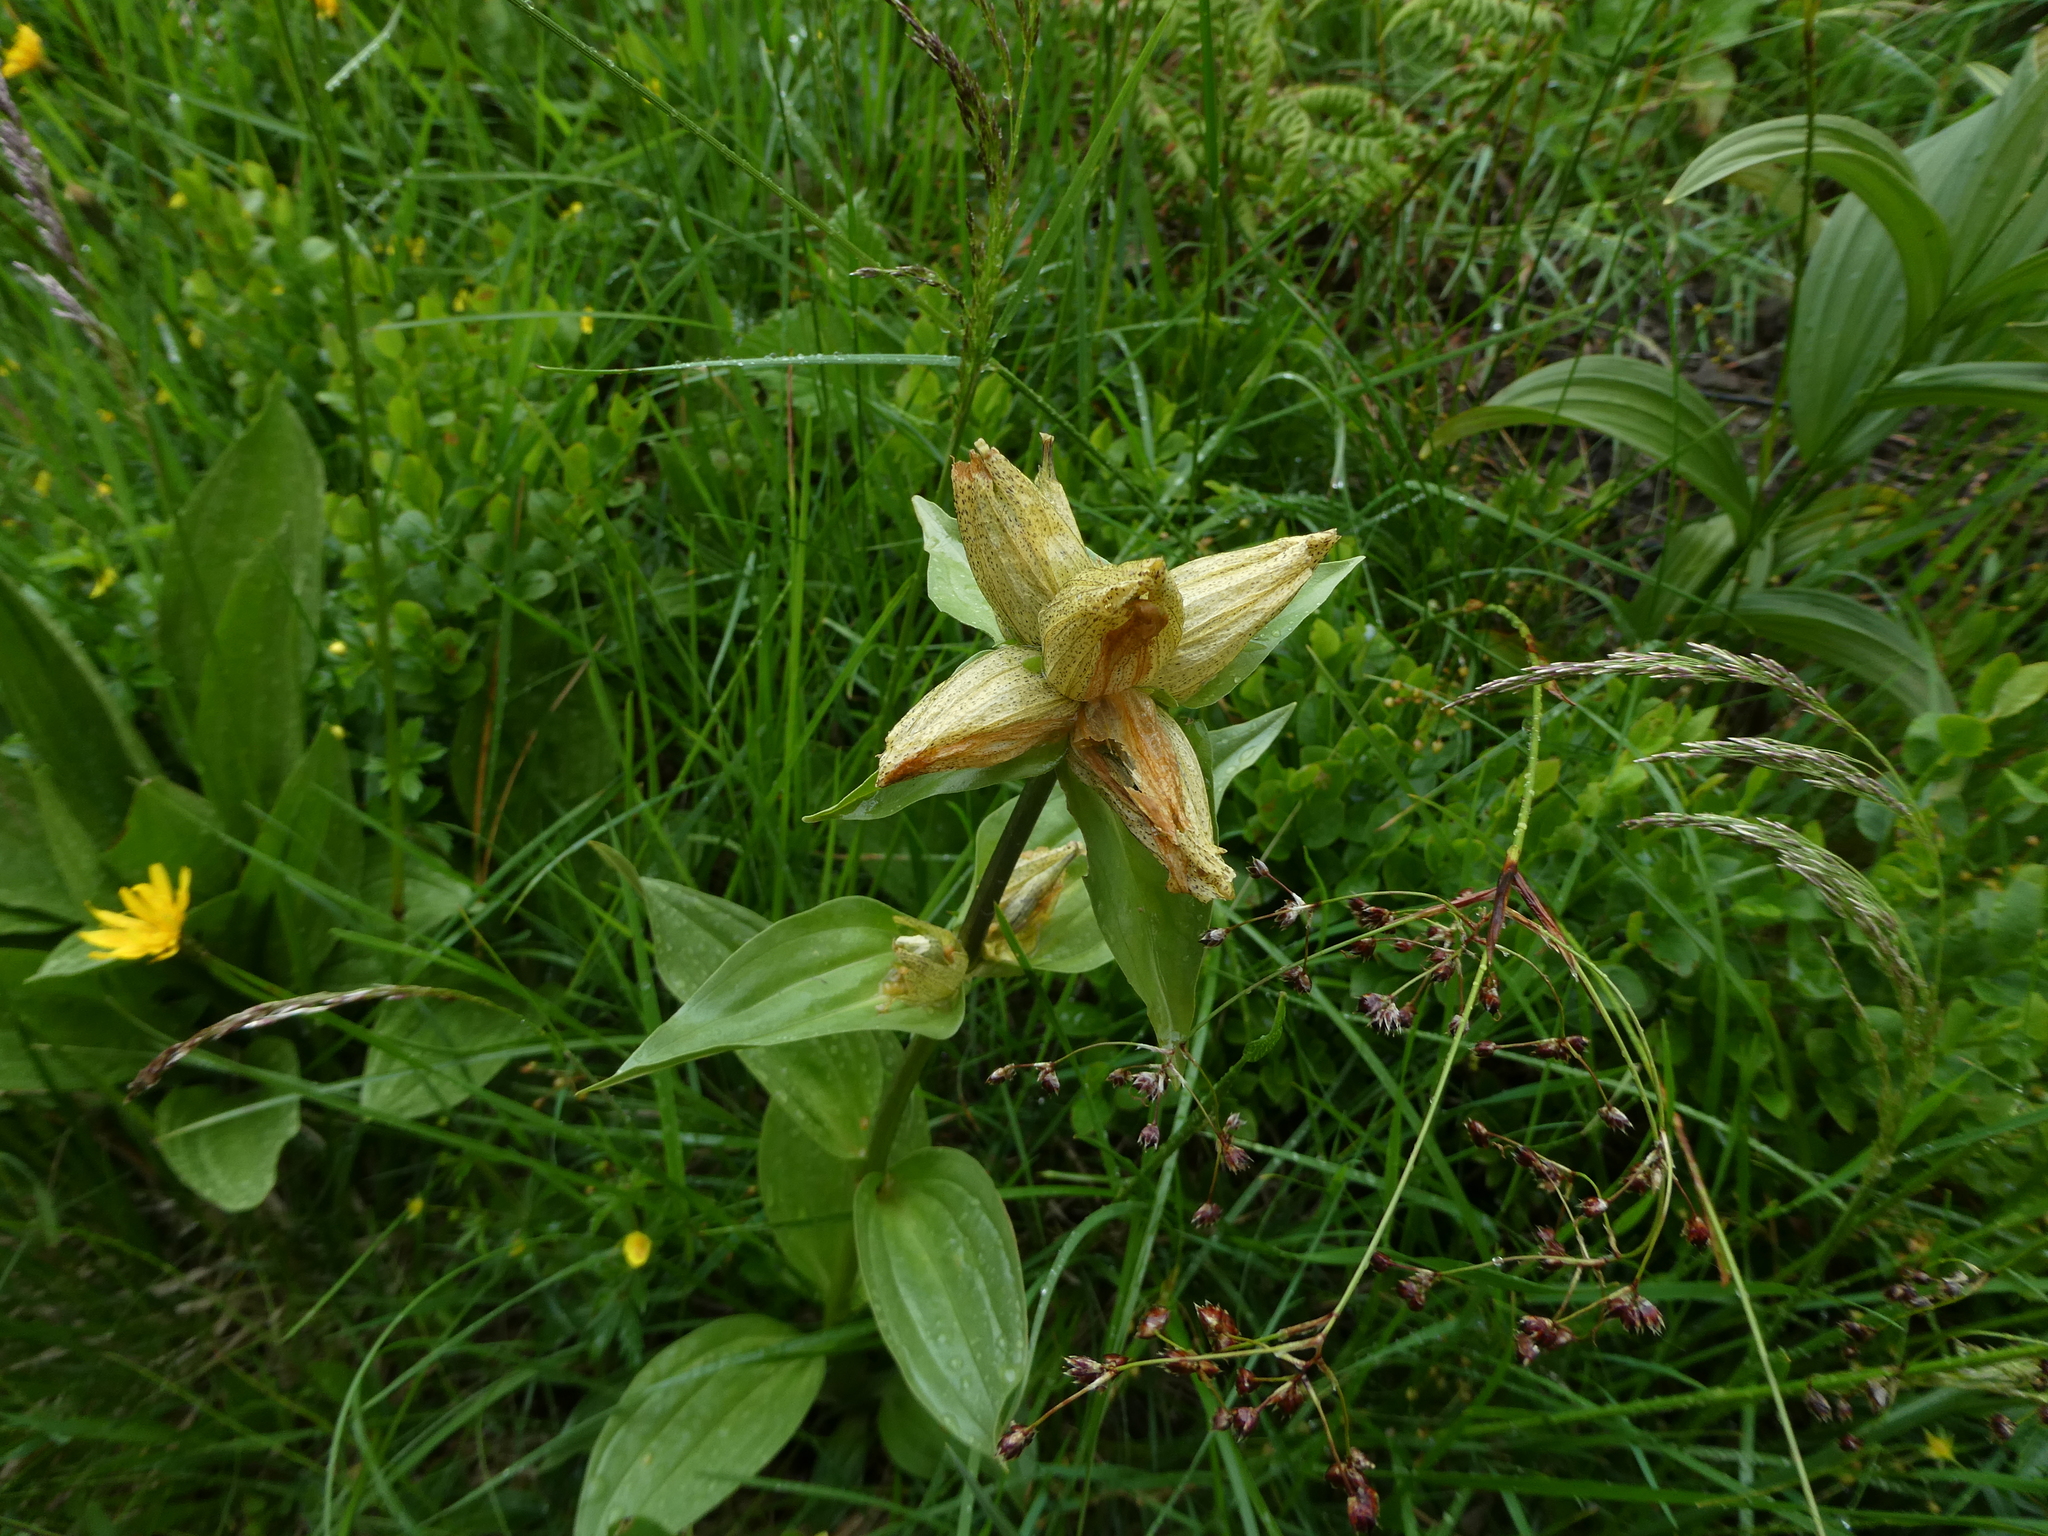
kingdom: Plantae
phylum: Tracheophyta
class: Magnoliopsida
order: Gentianales
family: Gentianaceae
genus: Gentiana
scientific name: Gentiana punctata
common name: Spotted gentian
